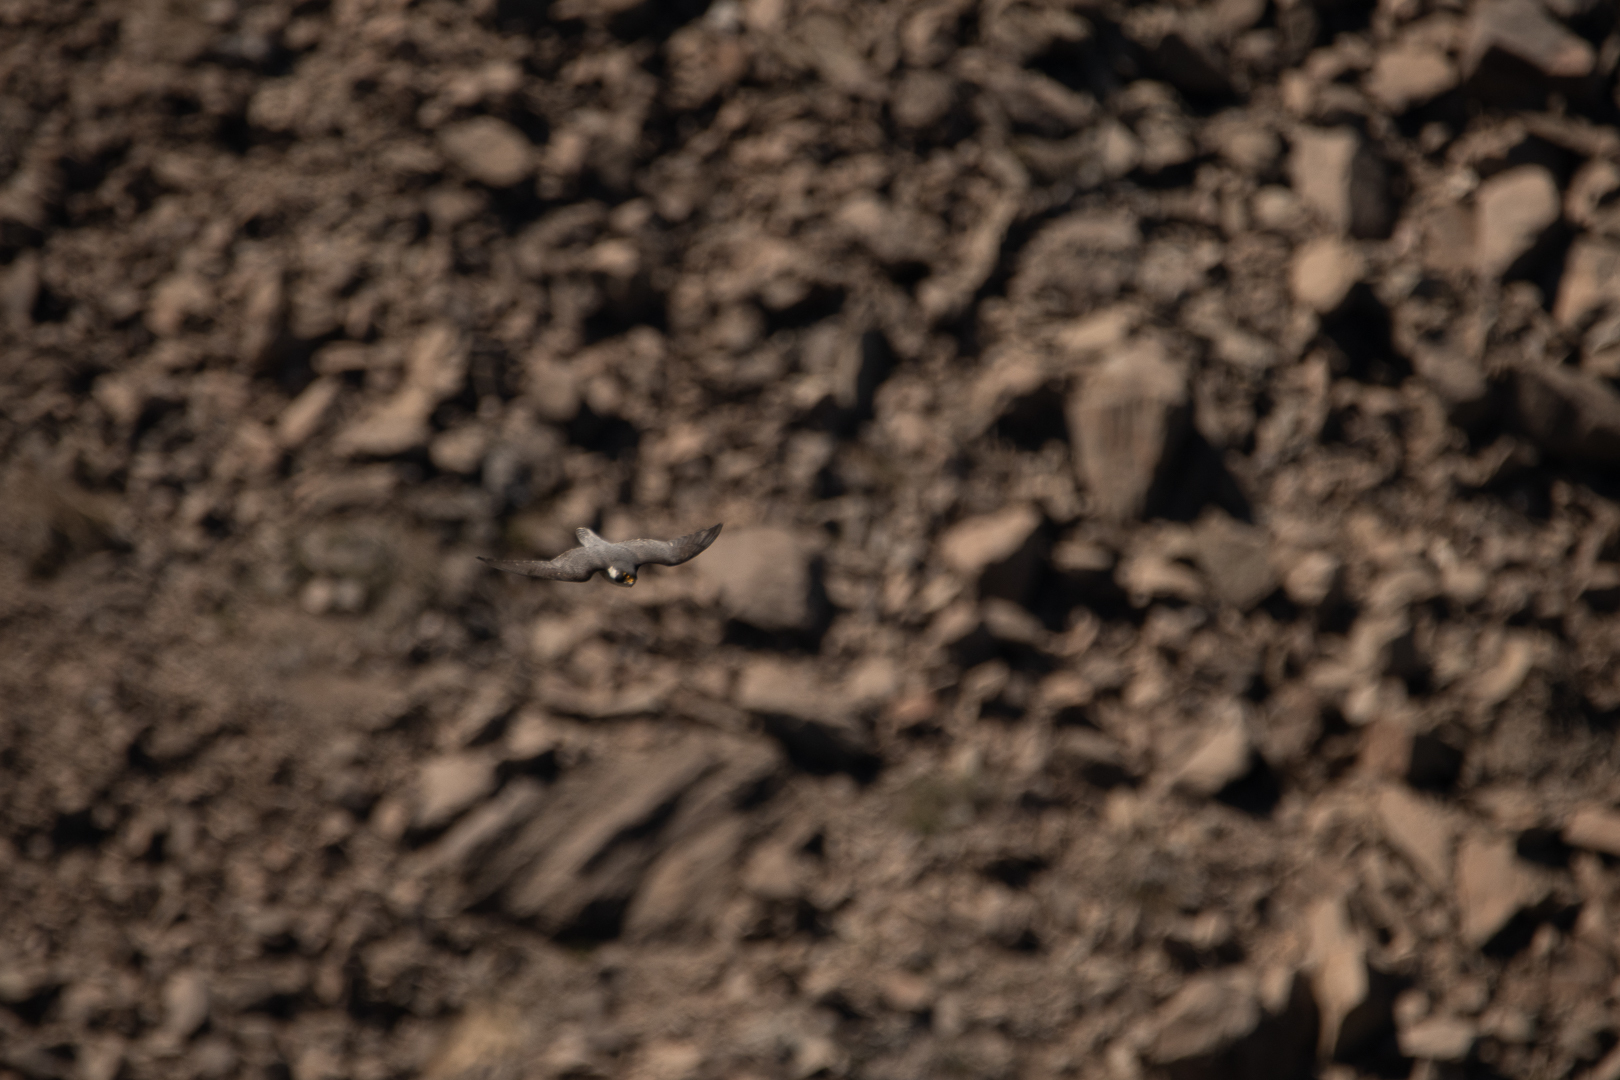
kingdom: Animalia
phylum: Chordata
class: Aves
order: Falconiformes
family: Falconidae
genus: Falco
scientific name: Falco peregrinus
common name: Peregrine falcon
